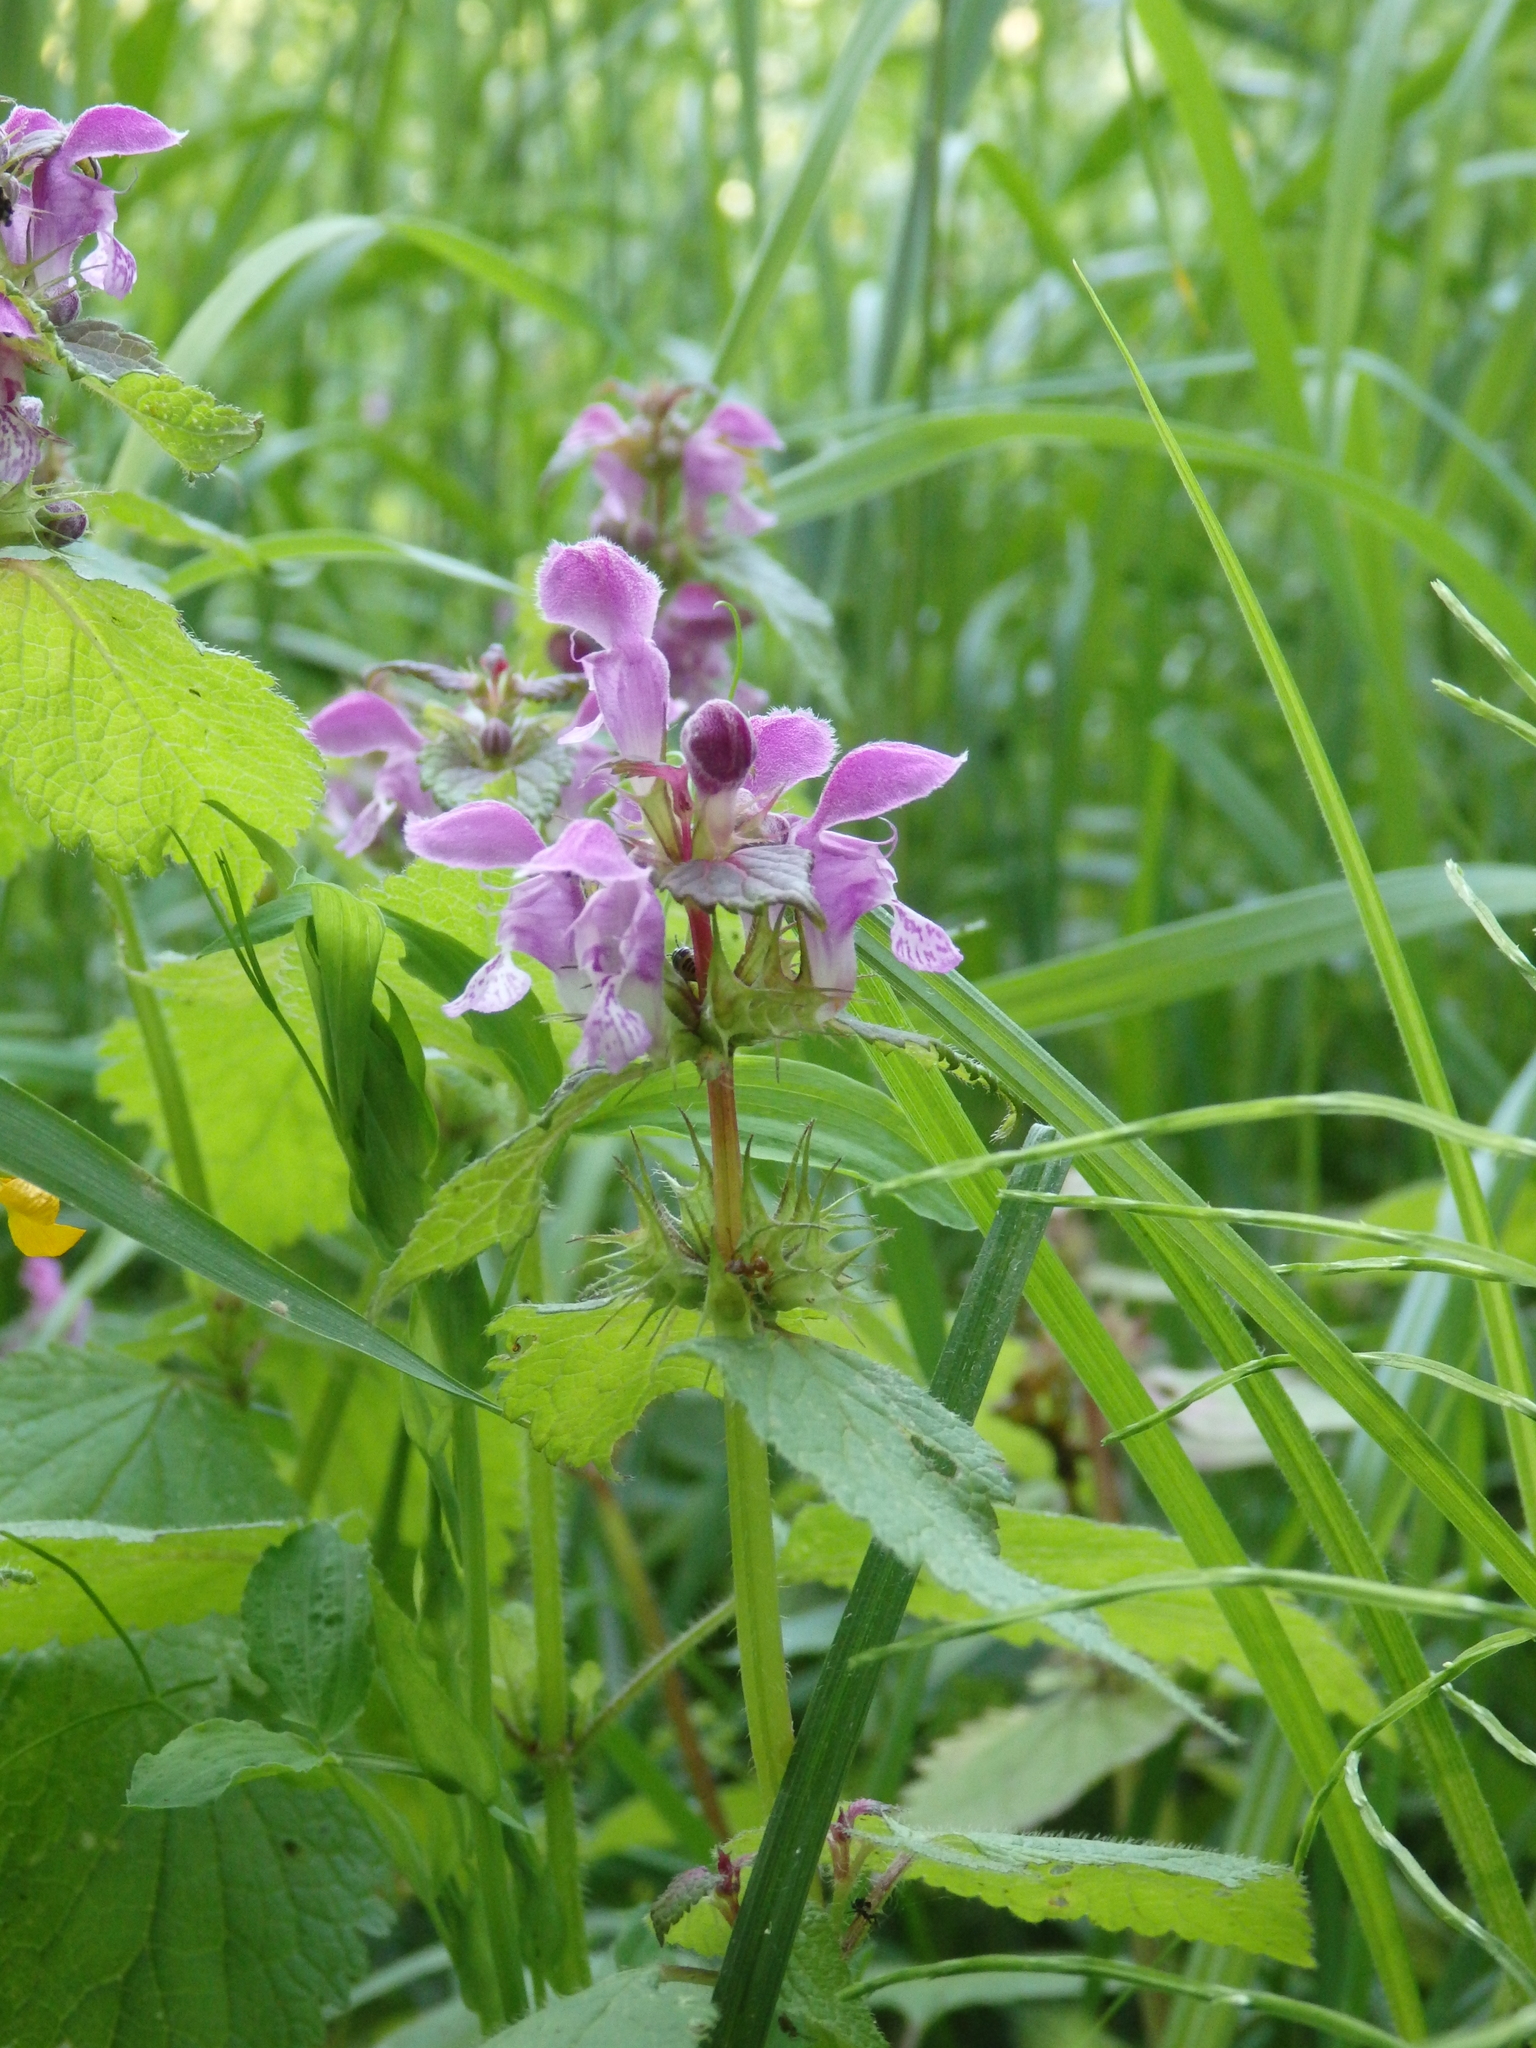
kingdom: Plantae
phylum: Tracheophyta
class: Magnoliopsida
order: Lamiales
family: Lamiaceae
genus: Lamium
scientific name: Lamium maculatum
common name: Spotted dead-nettle
